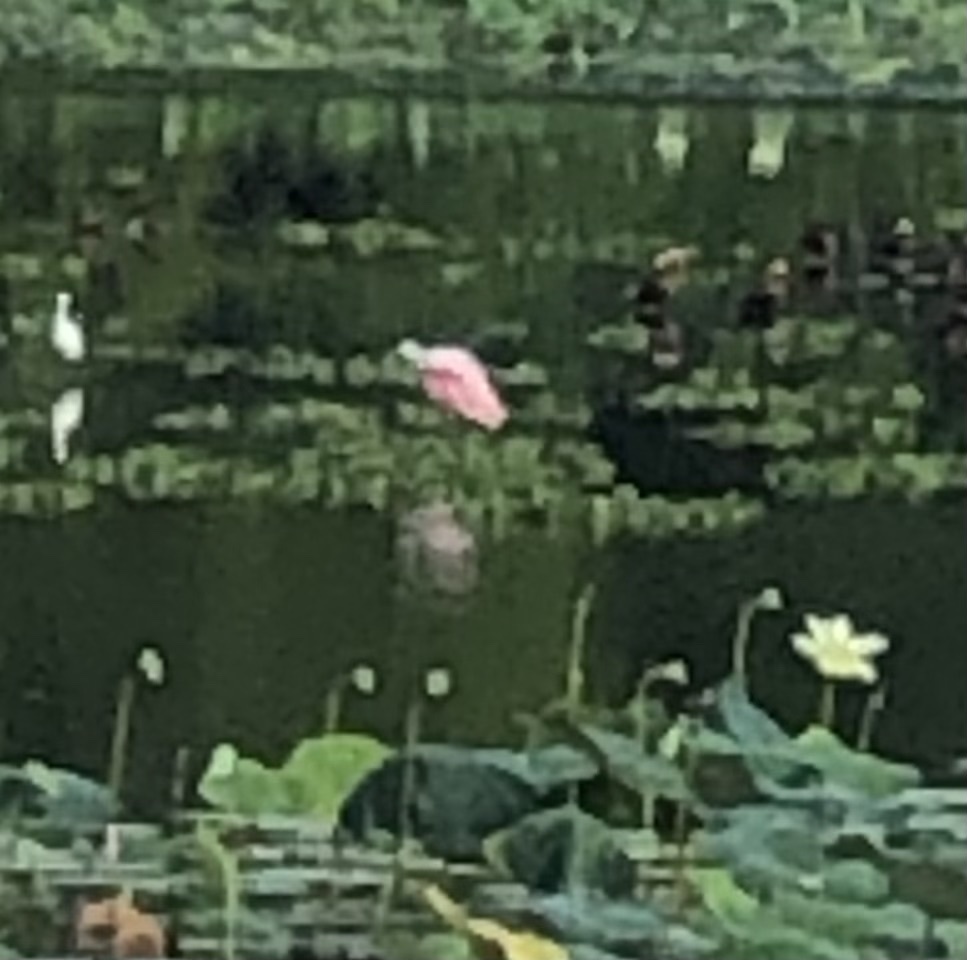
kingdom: Animalia
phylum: Chordata
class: Aves
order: Pelecaniformes
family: Threskiornithidae
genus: Platalea
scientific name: Platalea ajaja
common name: Roseate spoonbill
